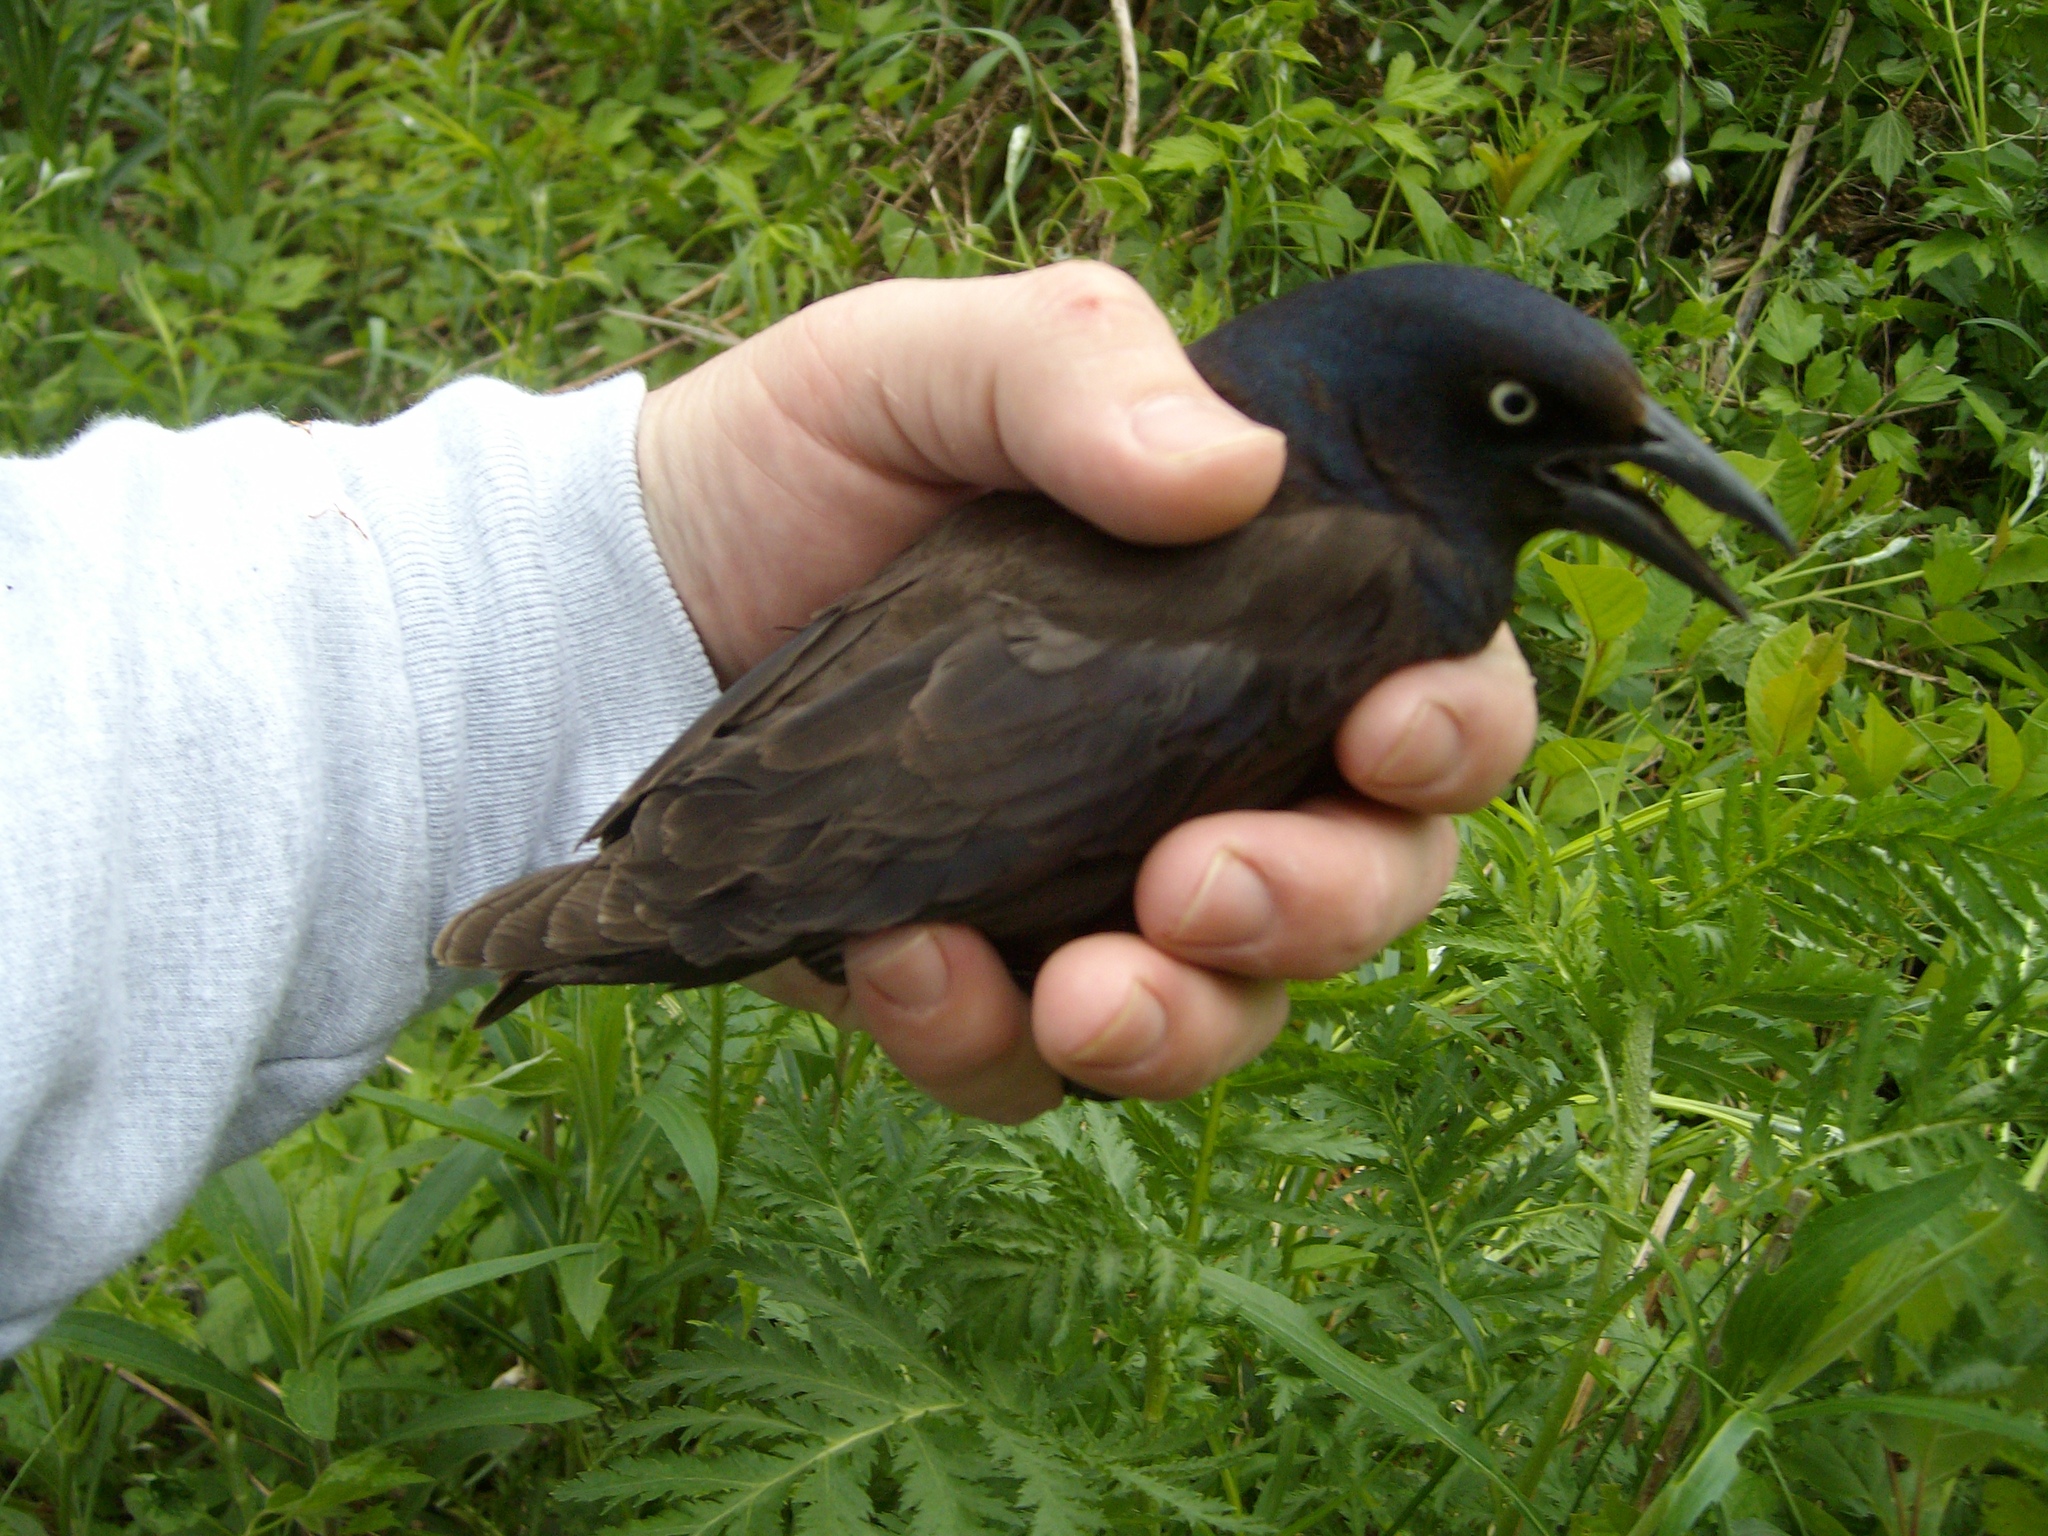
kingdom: Animalia
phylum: Chordata
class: Aves
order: Passeriformes
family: Icteridae
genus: Quiscalus
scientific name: Quiscalus quiscula
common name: Common grackle
